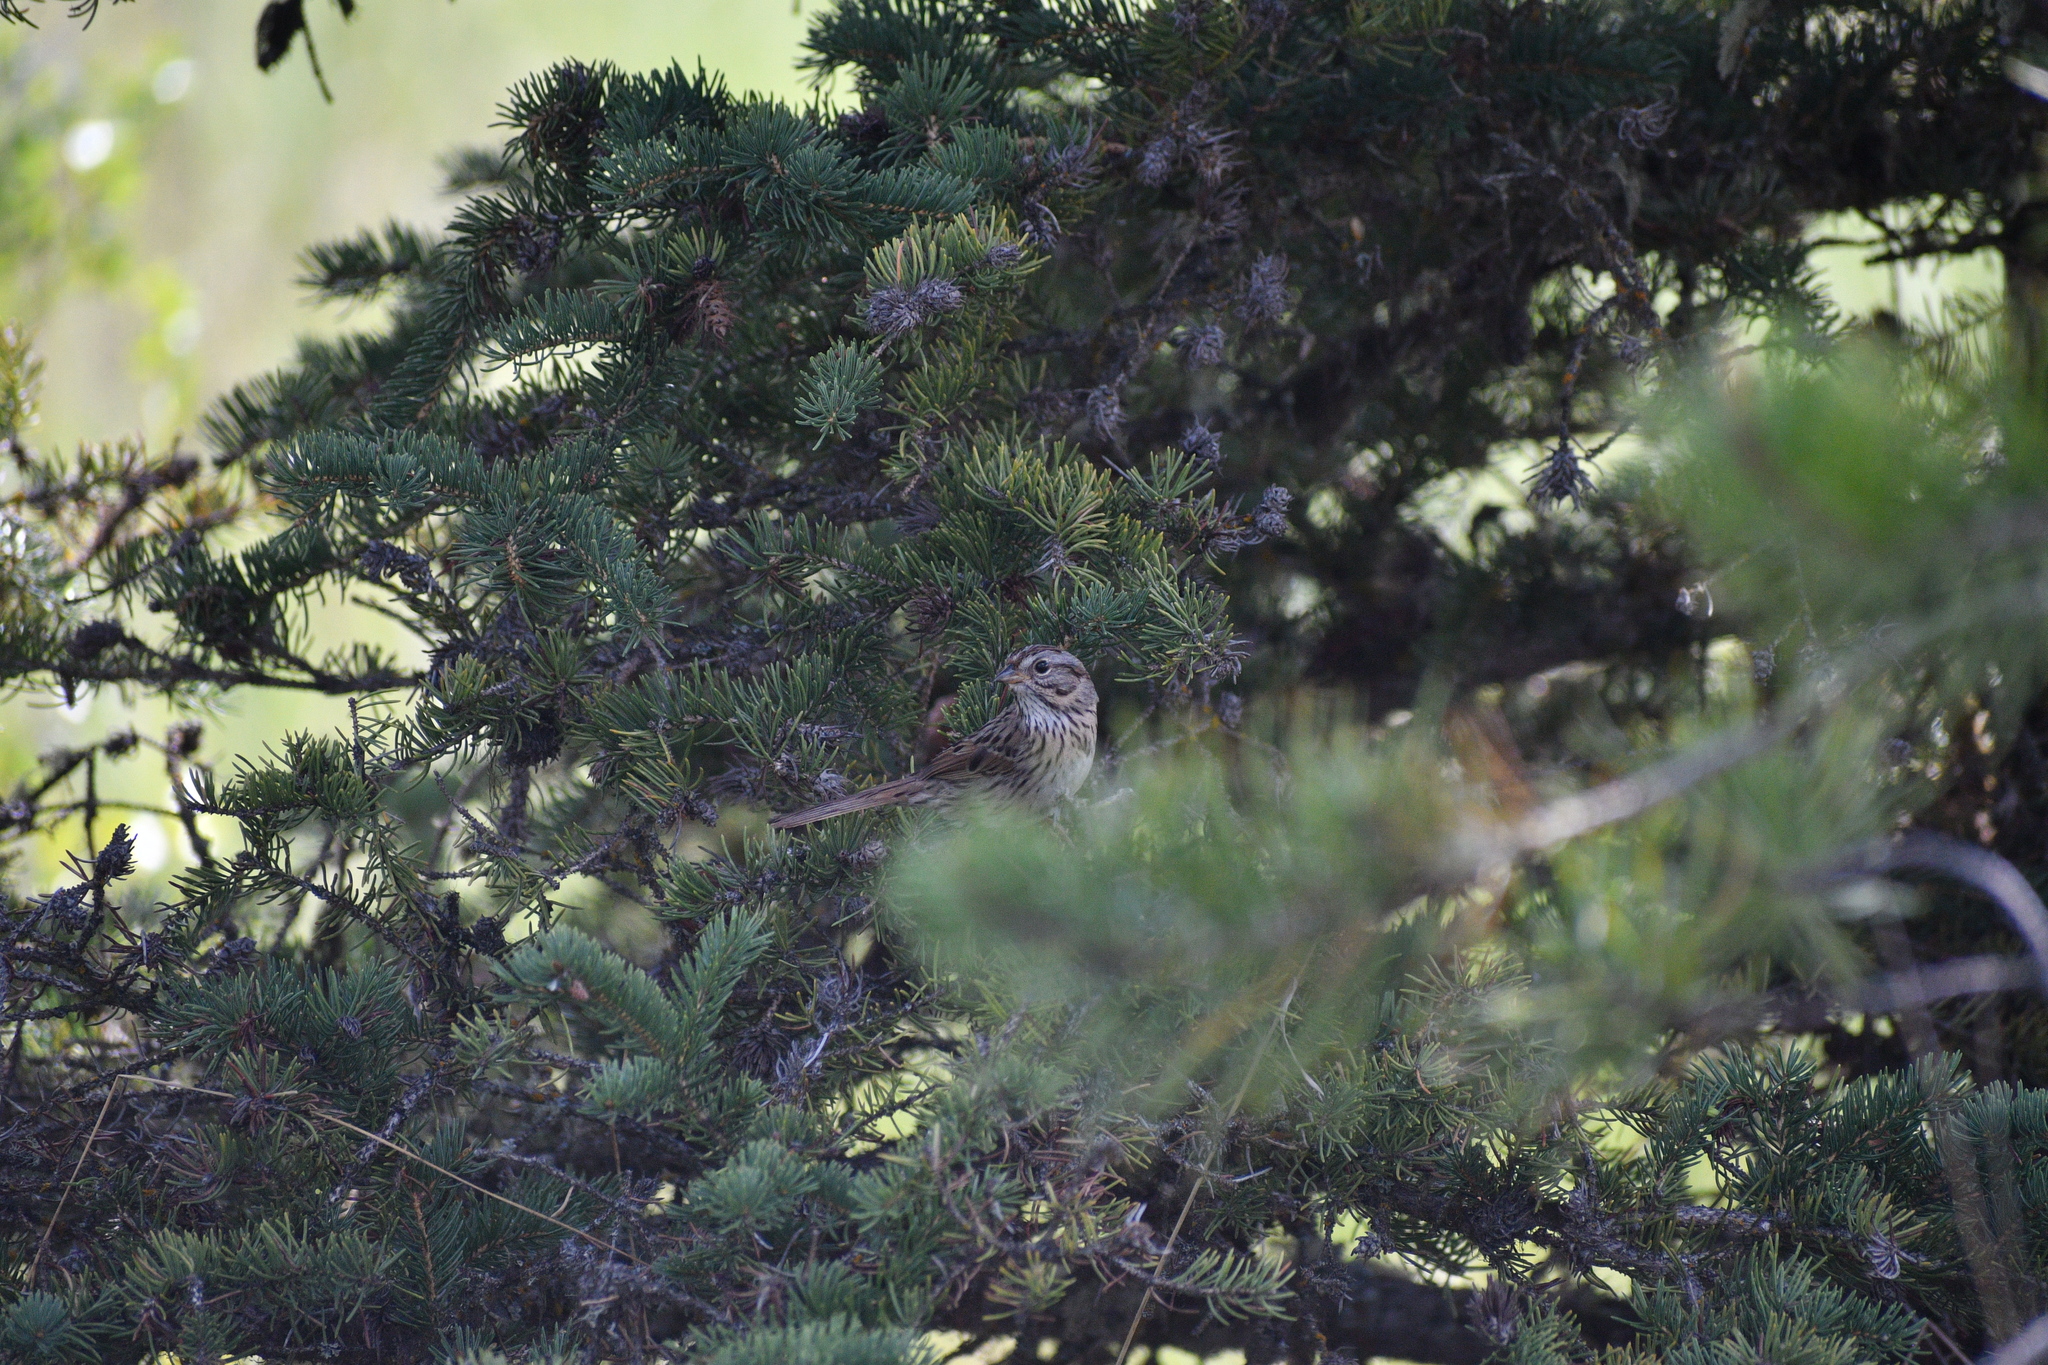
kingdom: Animalia
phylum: Chordata
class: Aves
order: Passeriformes
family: Passerellidae
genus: Melospiza
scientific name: Melospiza lincolnii
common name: Lincoln's sparrow
